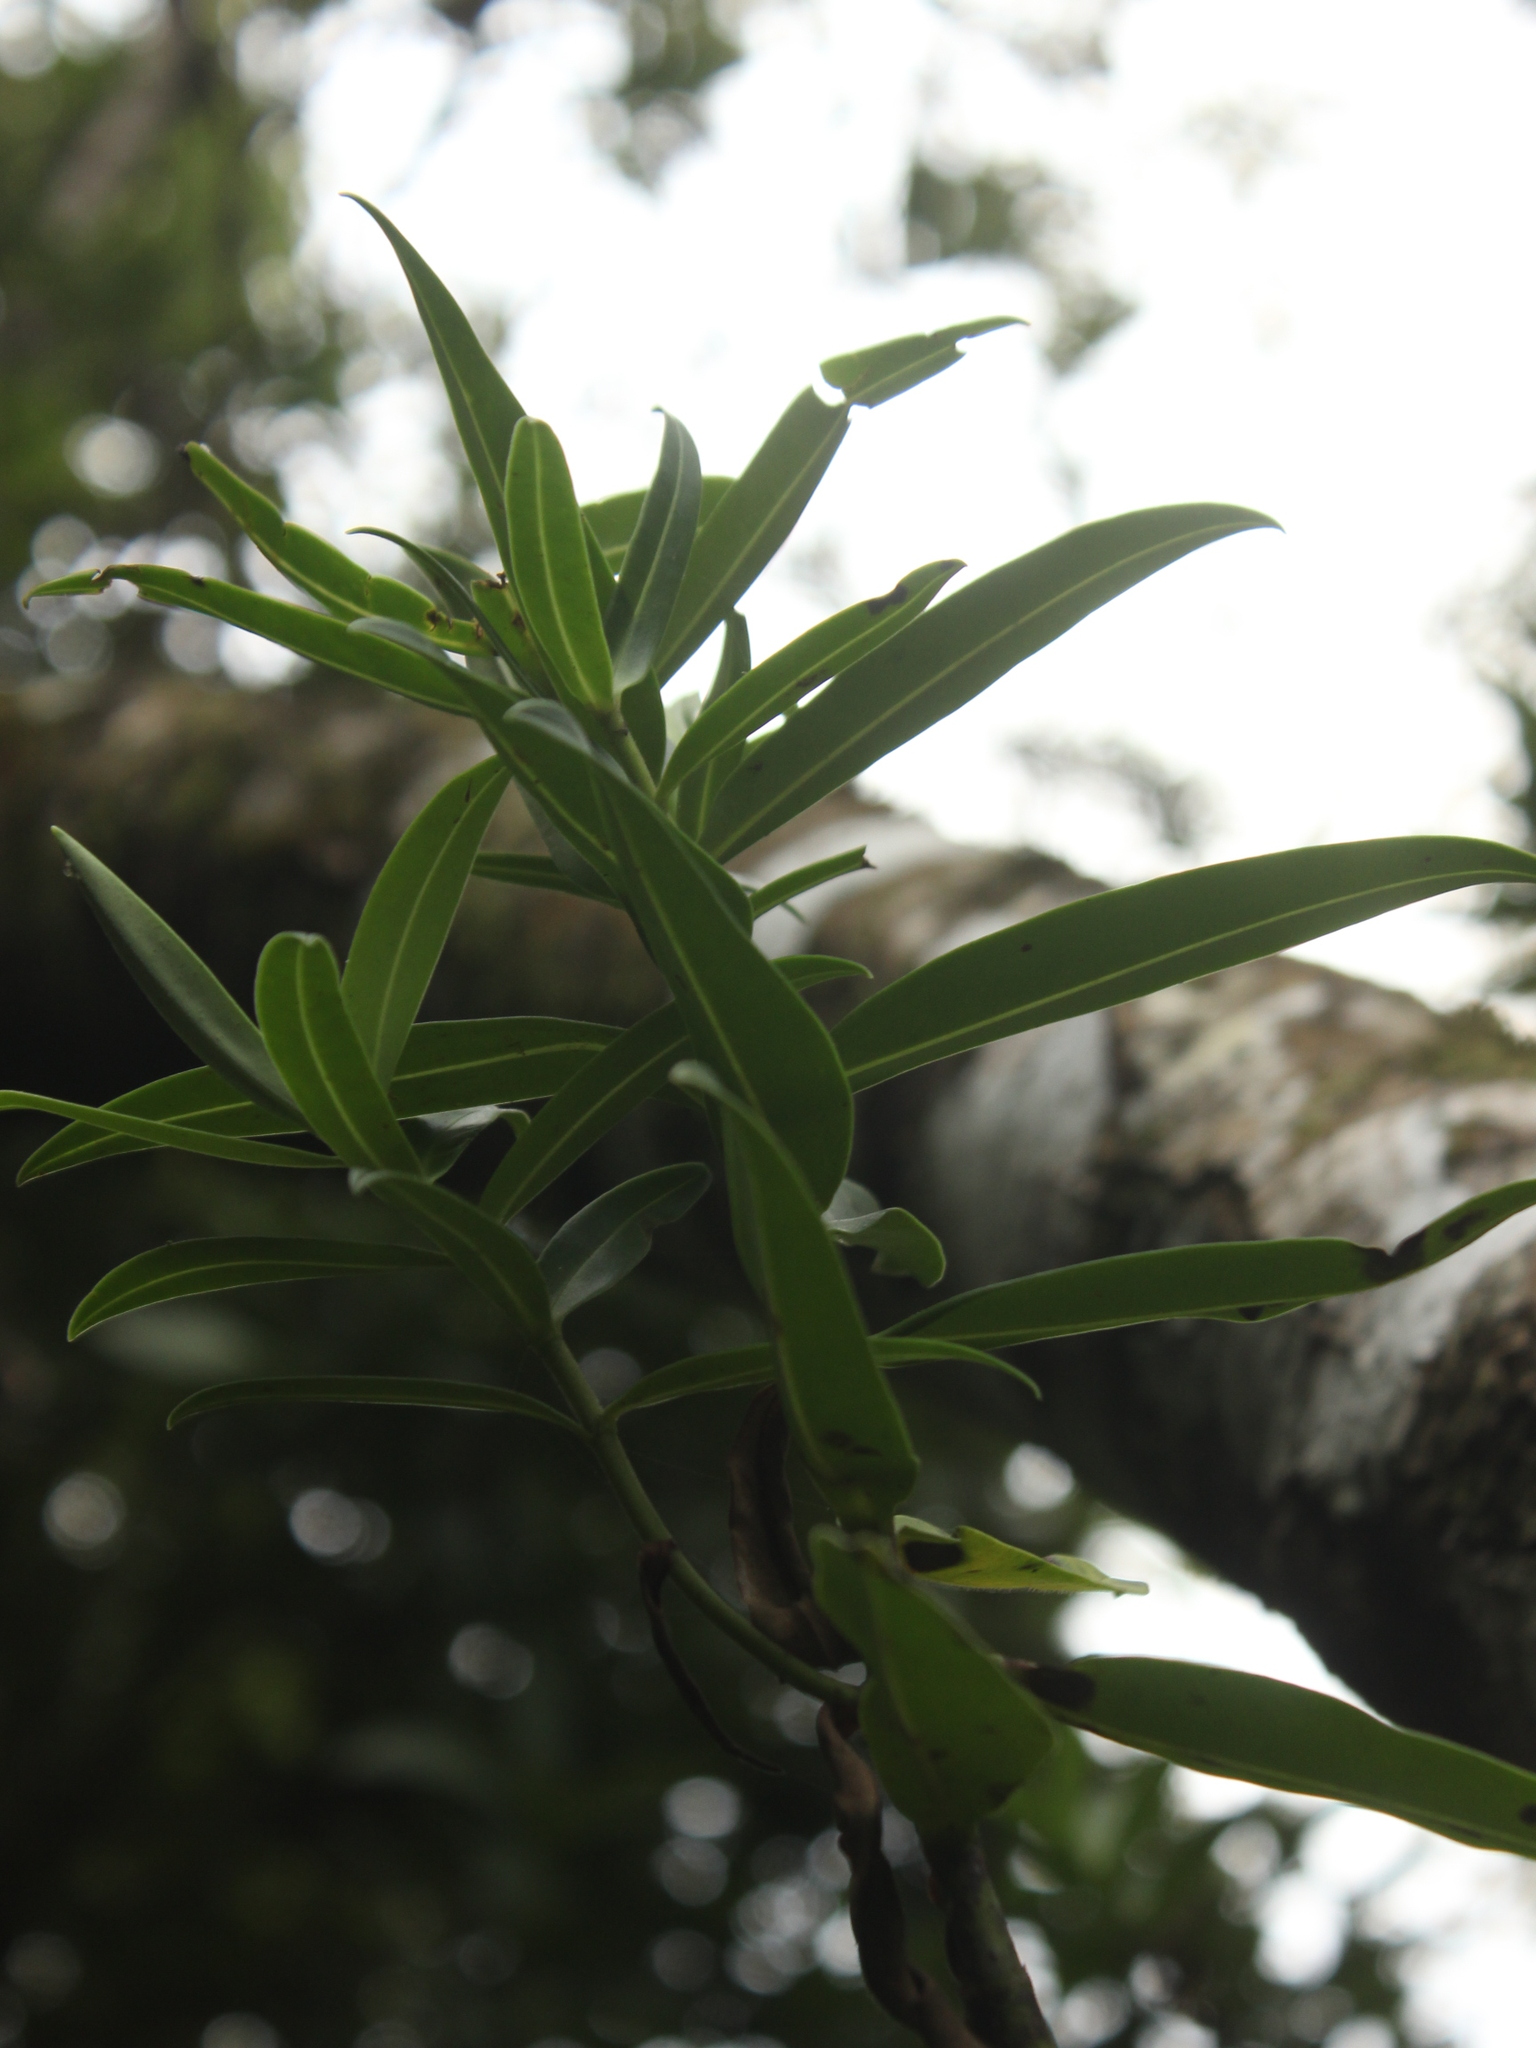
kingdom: Plantae
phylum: Tracheophyta
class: Magnoliopsida
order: Lamiales
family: Plantaginaceae
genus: Veronica
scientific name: Veronica barkeri
